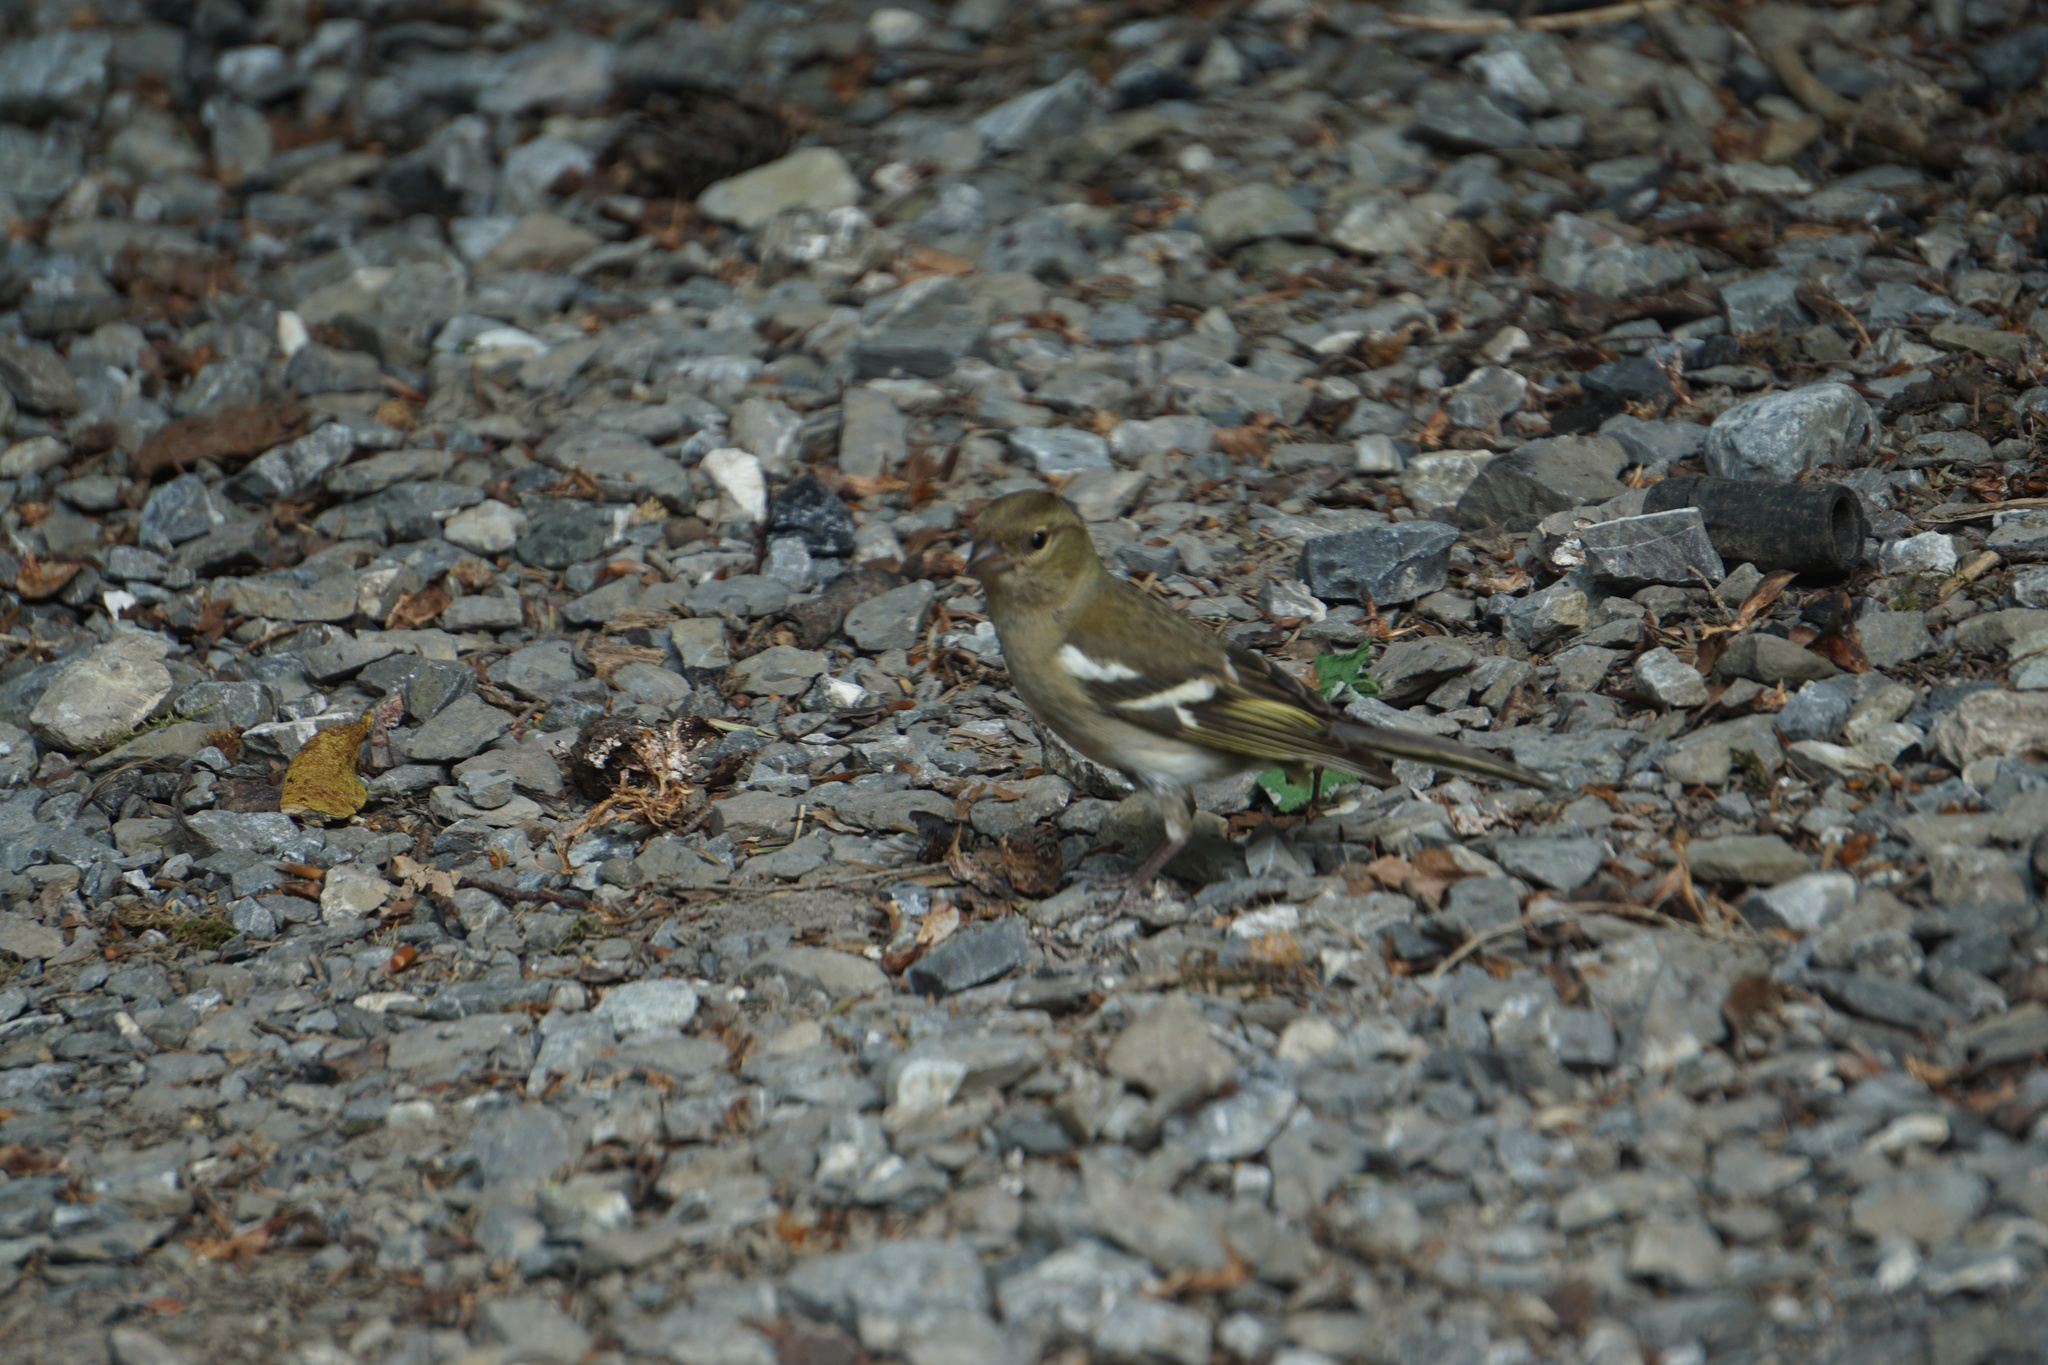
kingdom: Animalia
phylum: Chordata
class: Aves
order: Passeriformes
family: Fringillidae
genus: Fringilla
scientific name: Fringilla coelebs
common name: Common chaffinch
